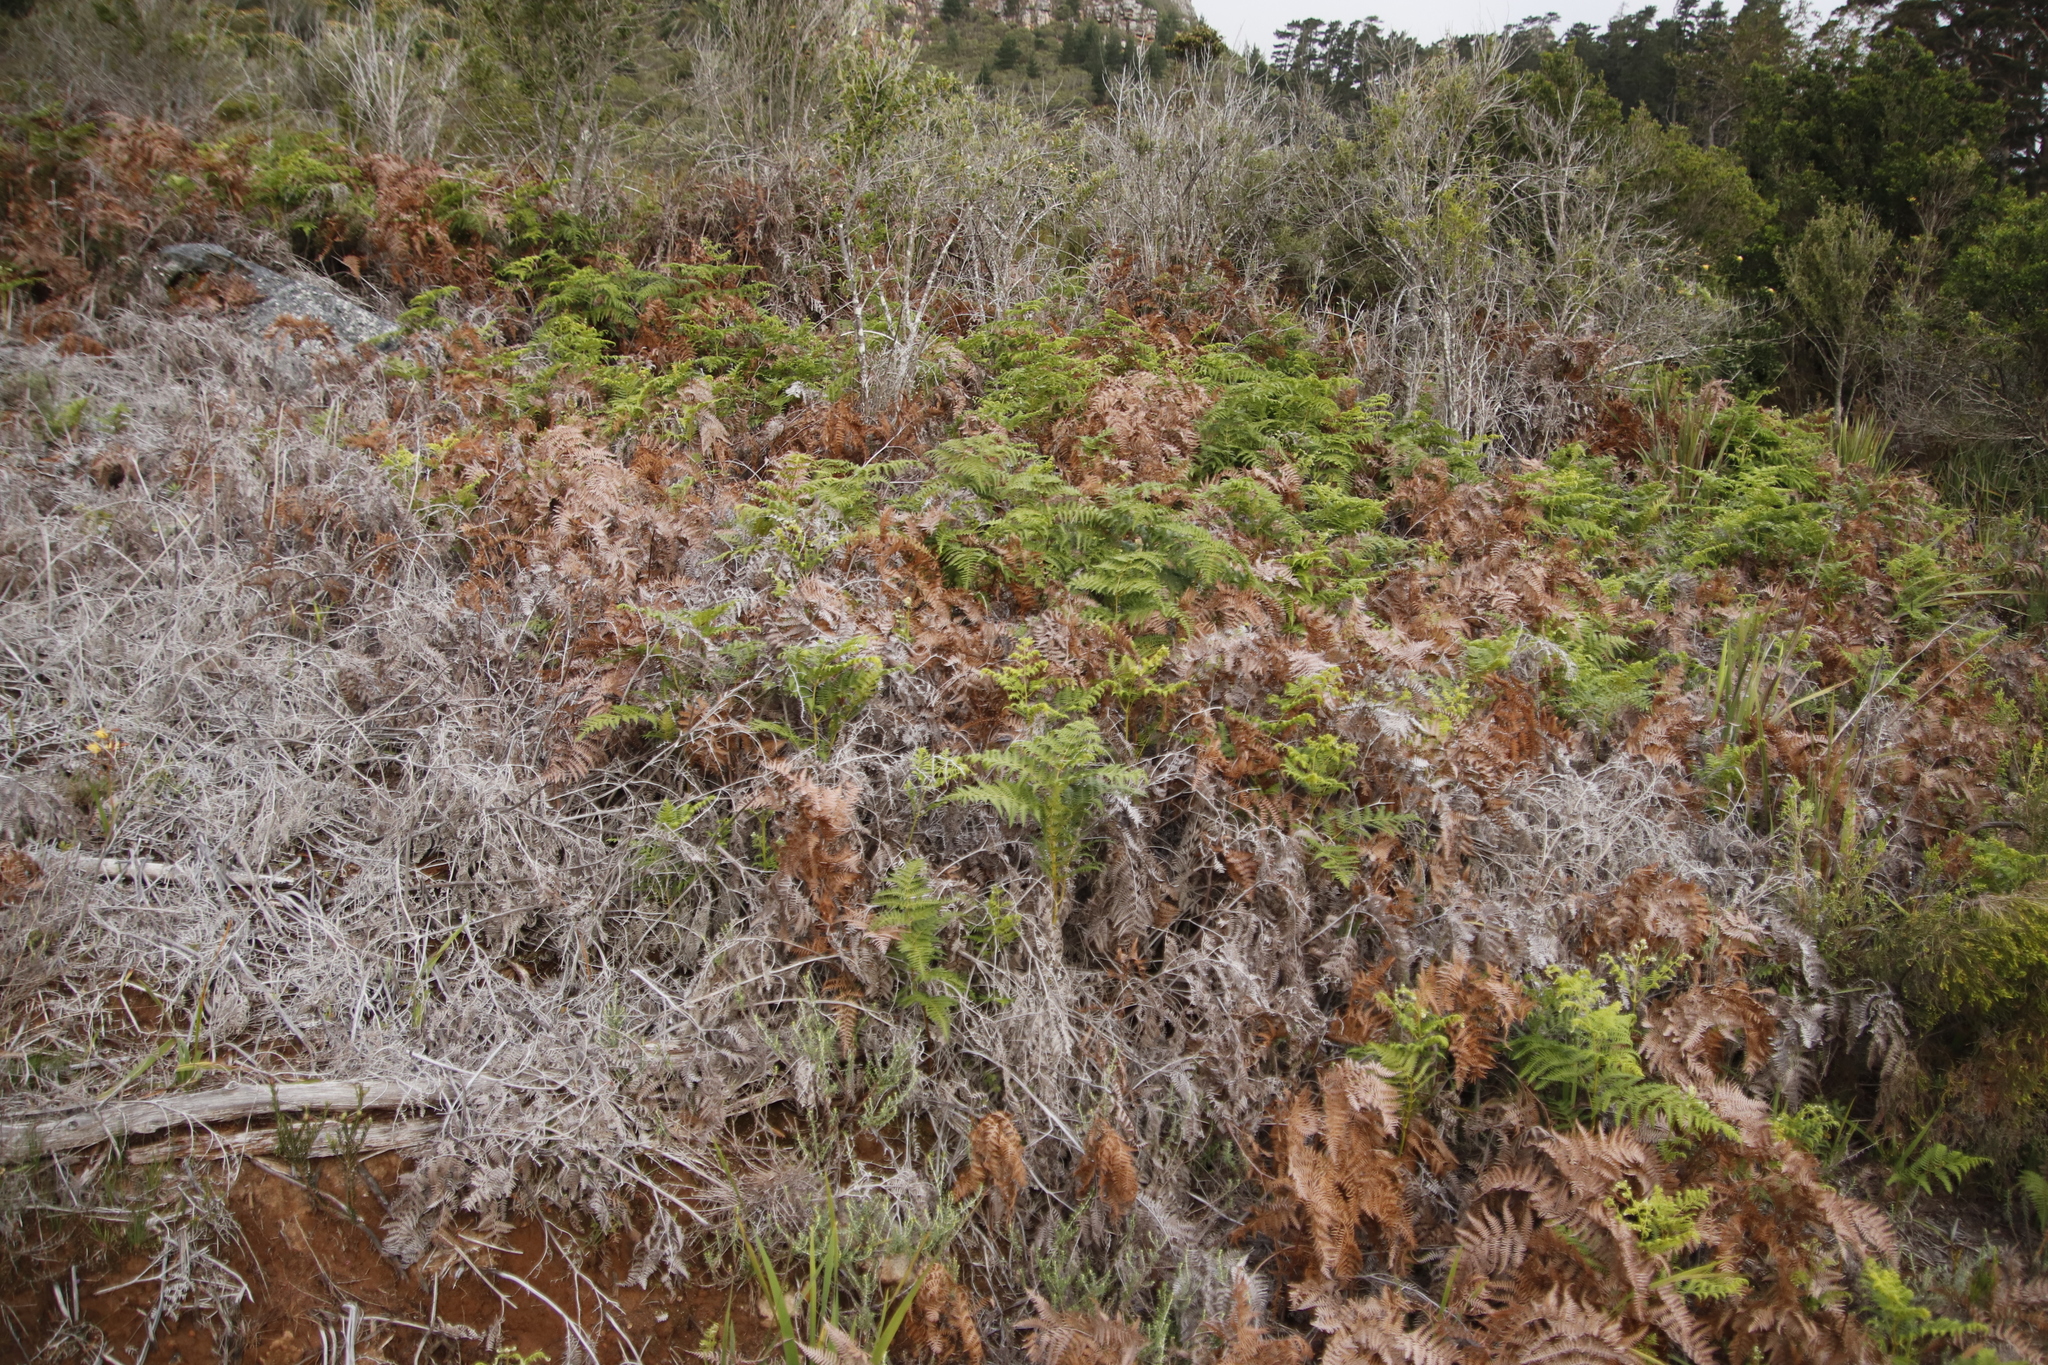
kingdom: Plantae
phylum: Tracheophyta
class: Polypodiopsida
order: Polypodiales
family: Dennstaedtiaceae
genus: Pteridium
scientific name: Pteridium aquilinum
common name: Bracken
